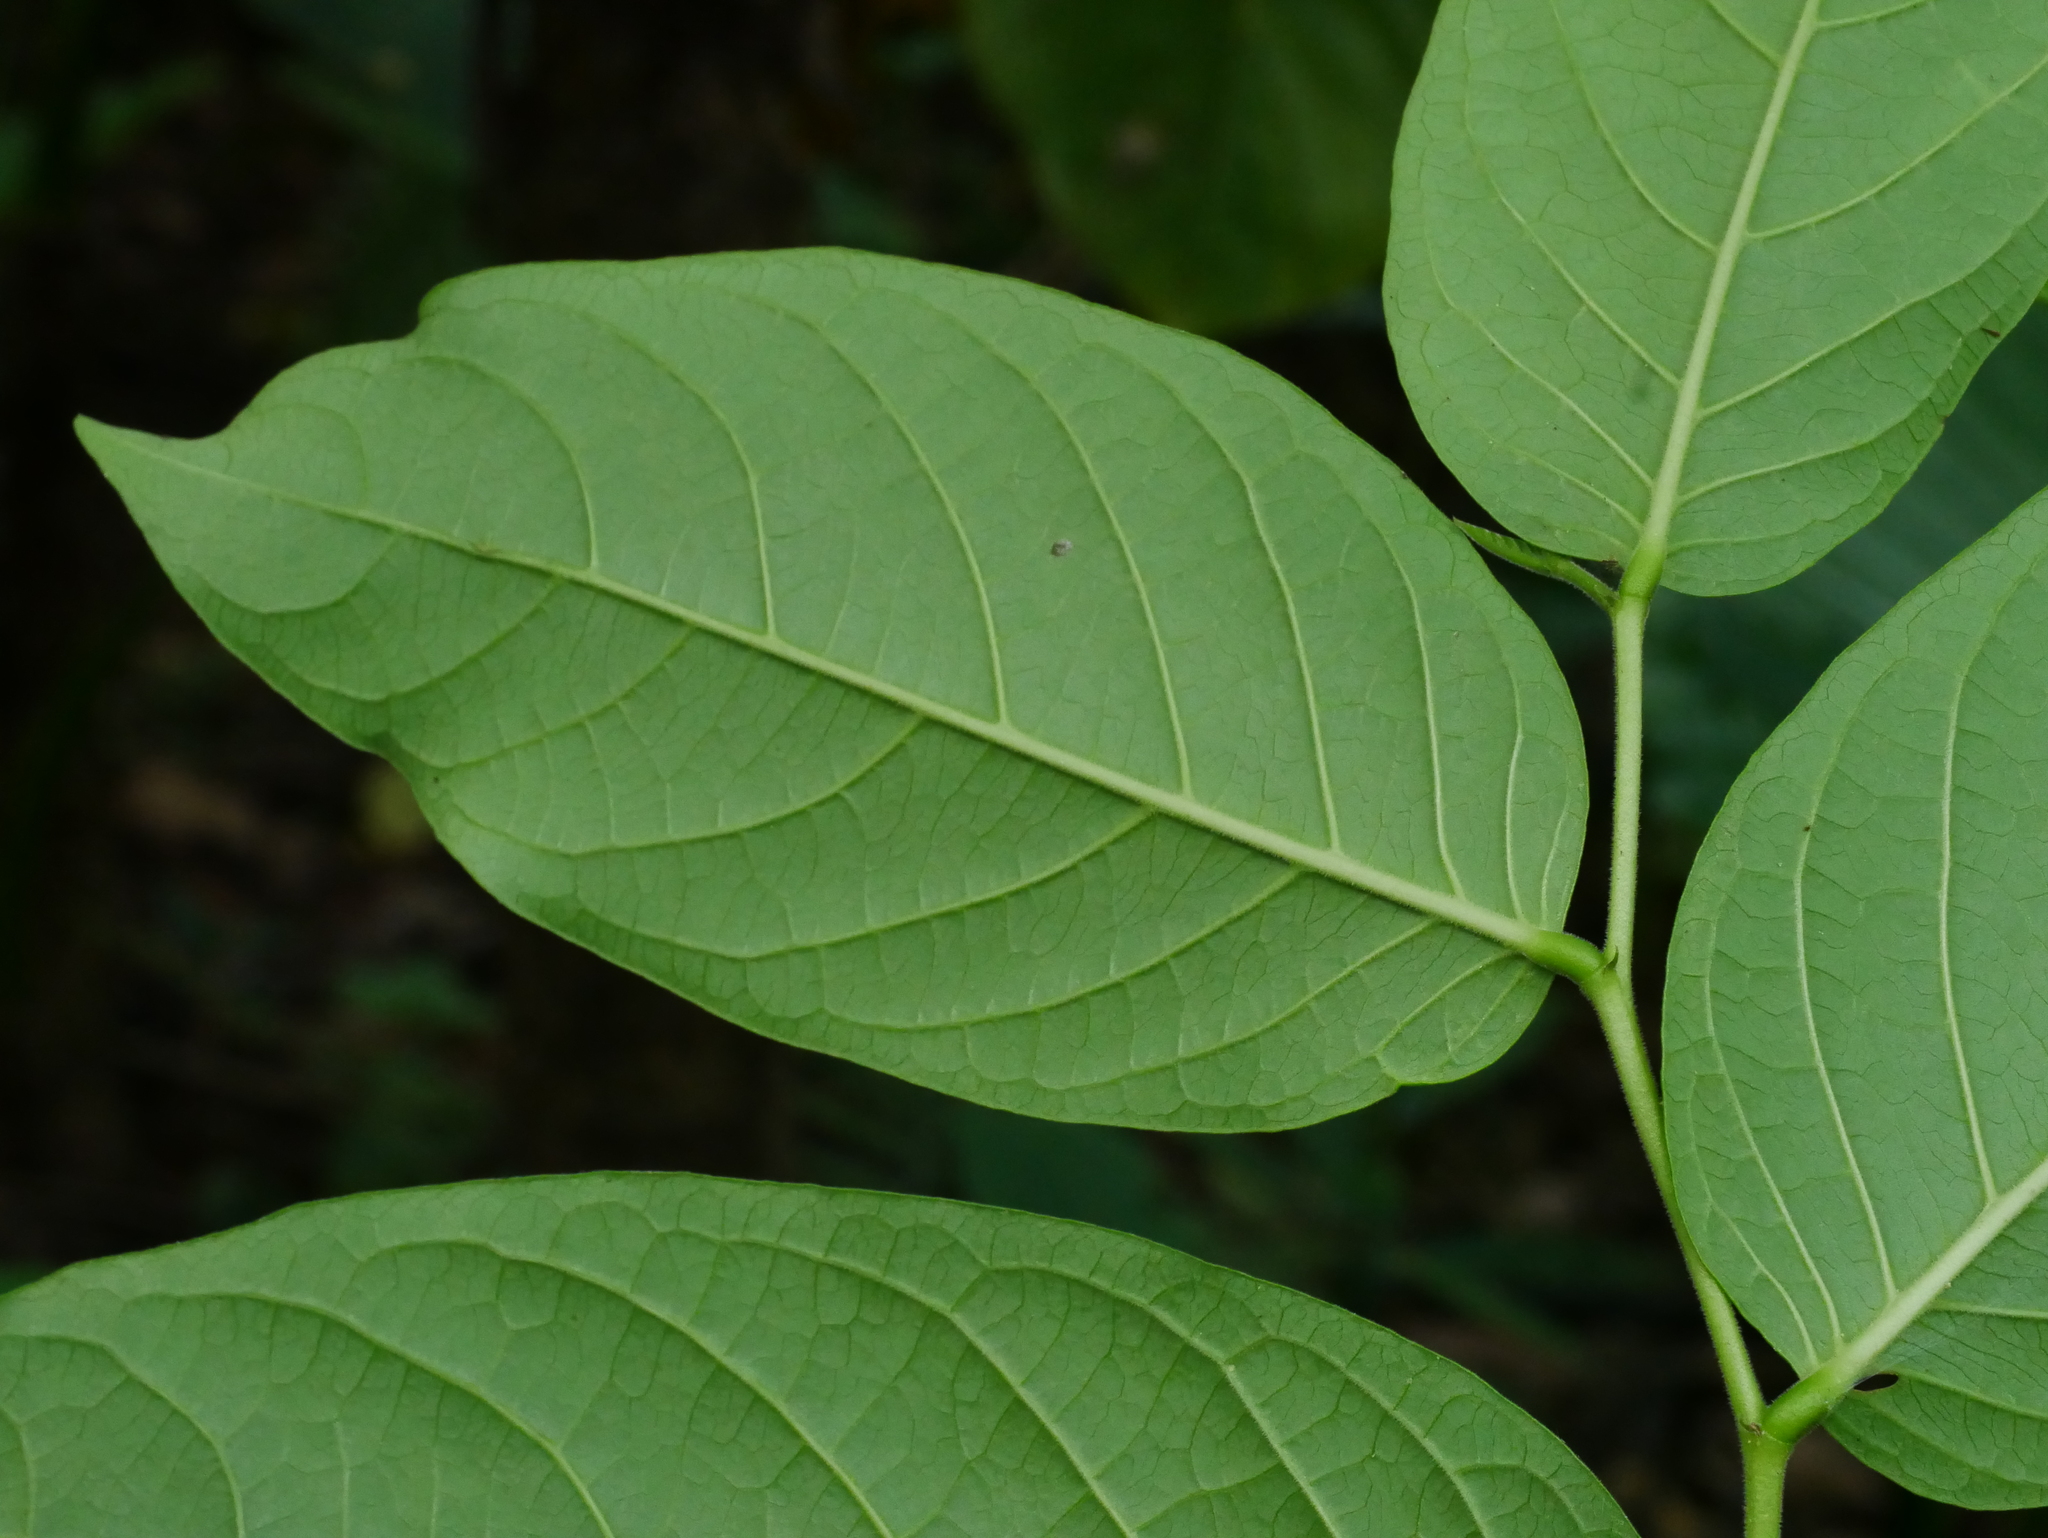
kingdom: Plantae
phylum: Tracheophyta
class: Magnoliopsida
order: Malpighiales
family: Phyllanthaceae
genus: Glochidion
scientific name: Glochidion zeylanicum
